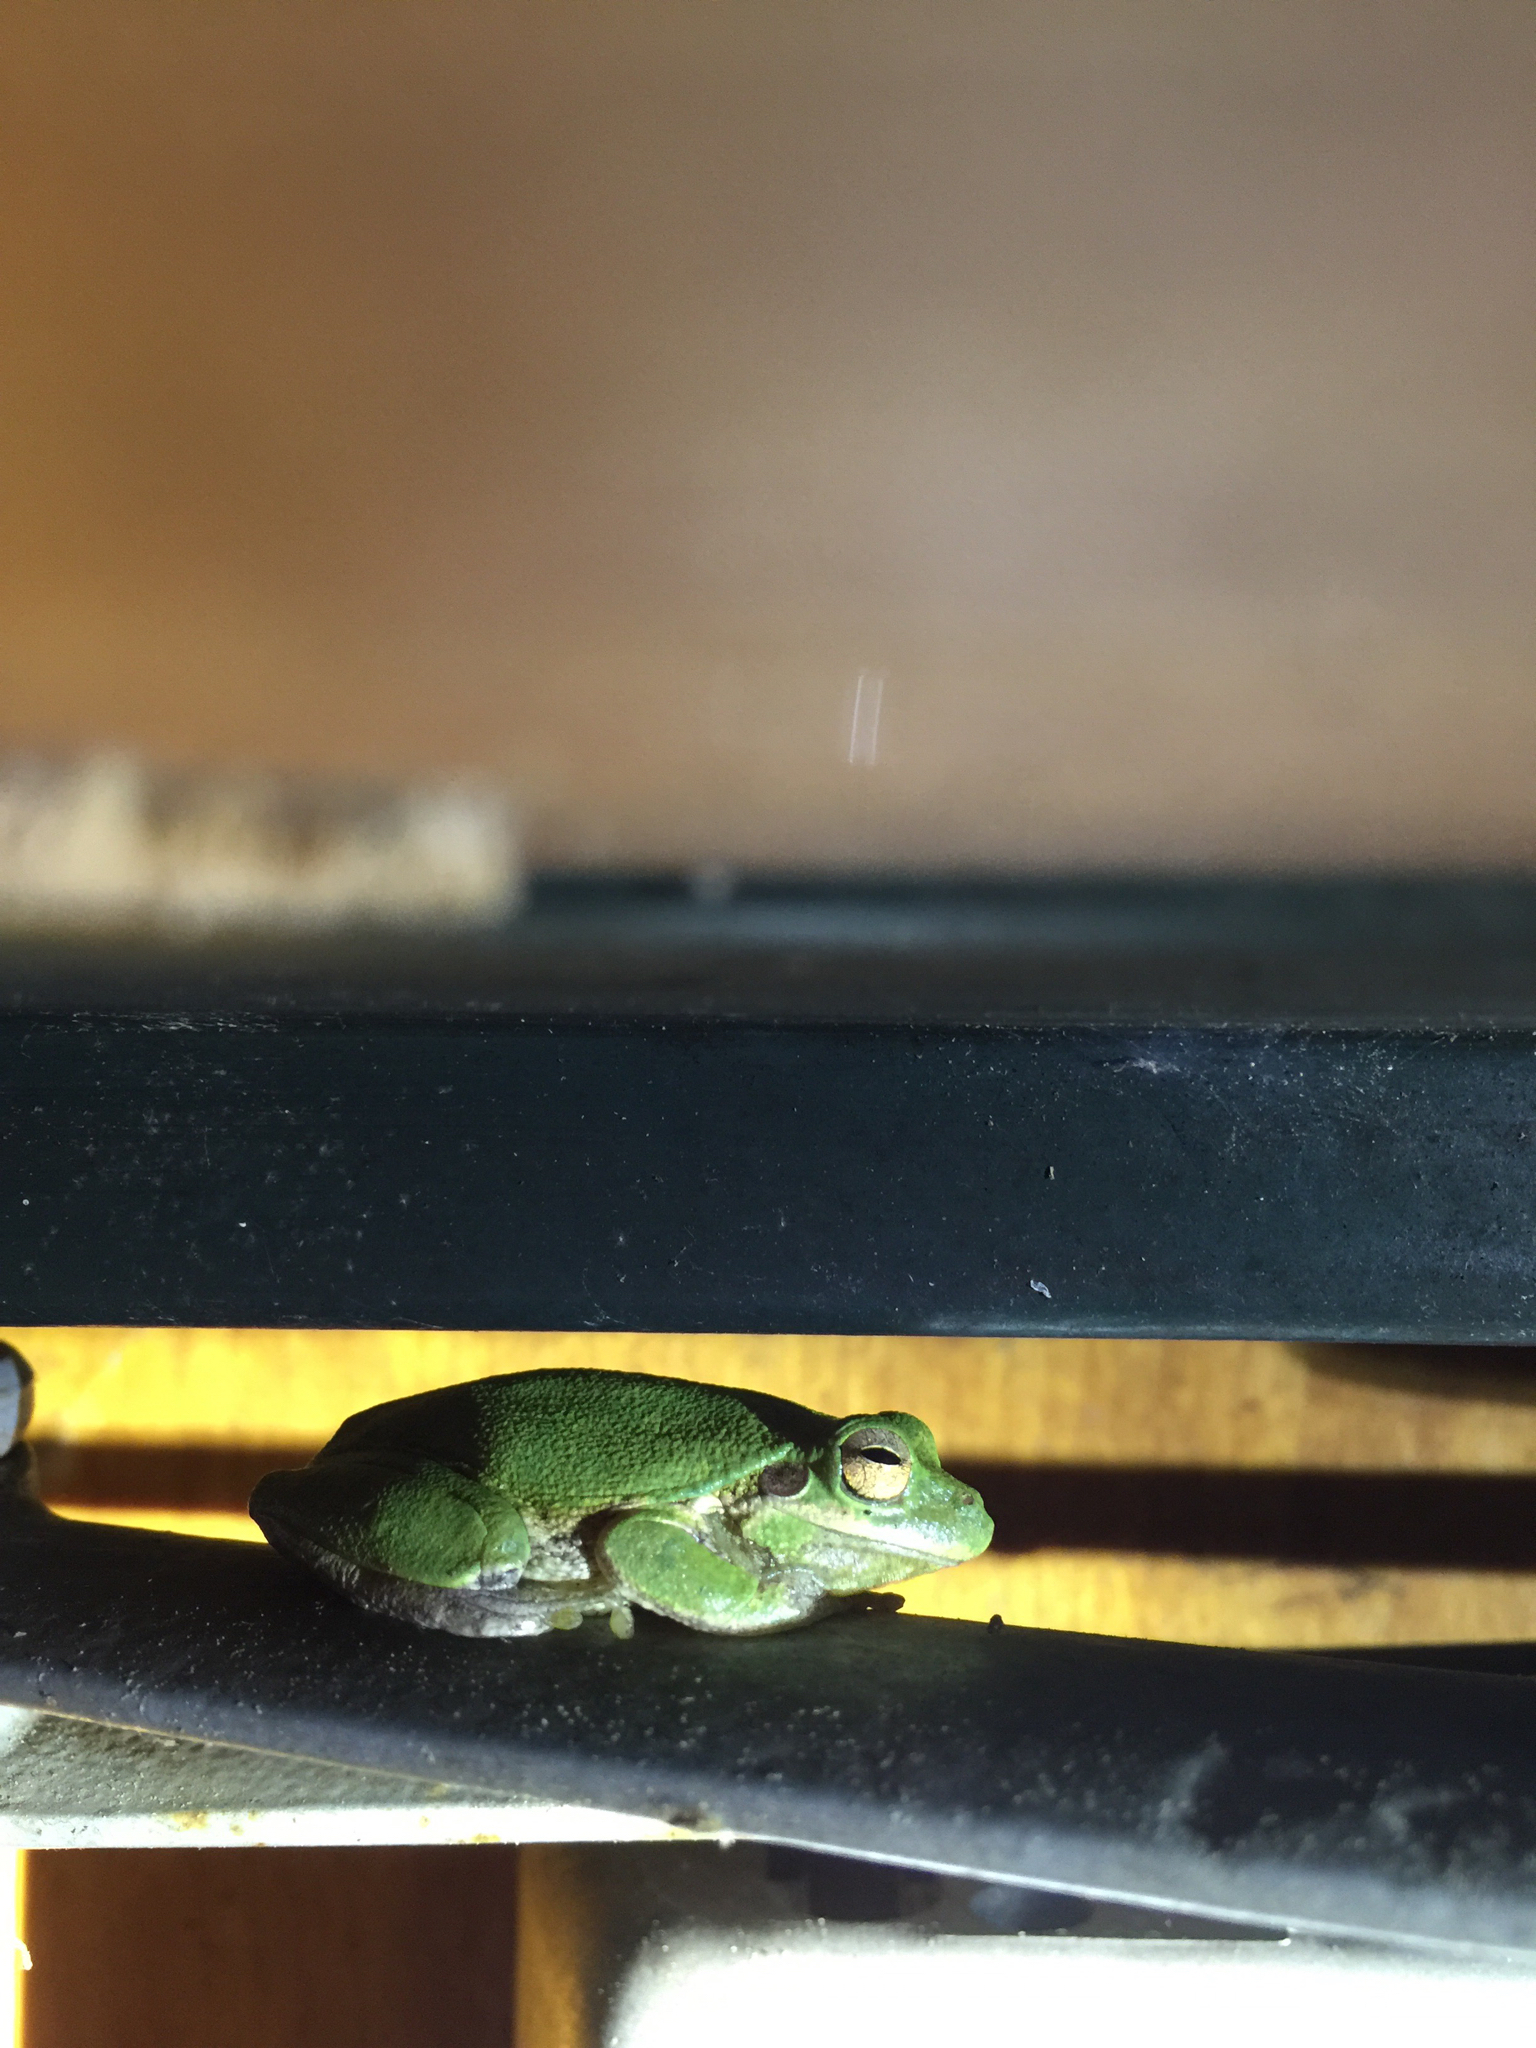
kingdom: Animalia
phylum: Chordata
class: Amphibia
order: Anura
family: Hylidae
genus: Dryophytes
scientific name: Dryophytes squirellus
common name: Squirrel treefrog
